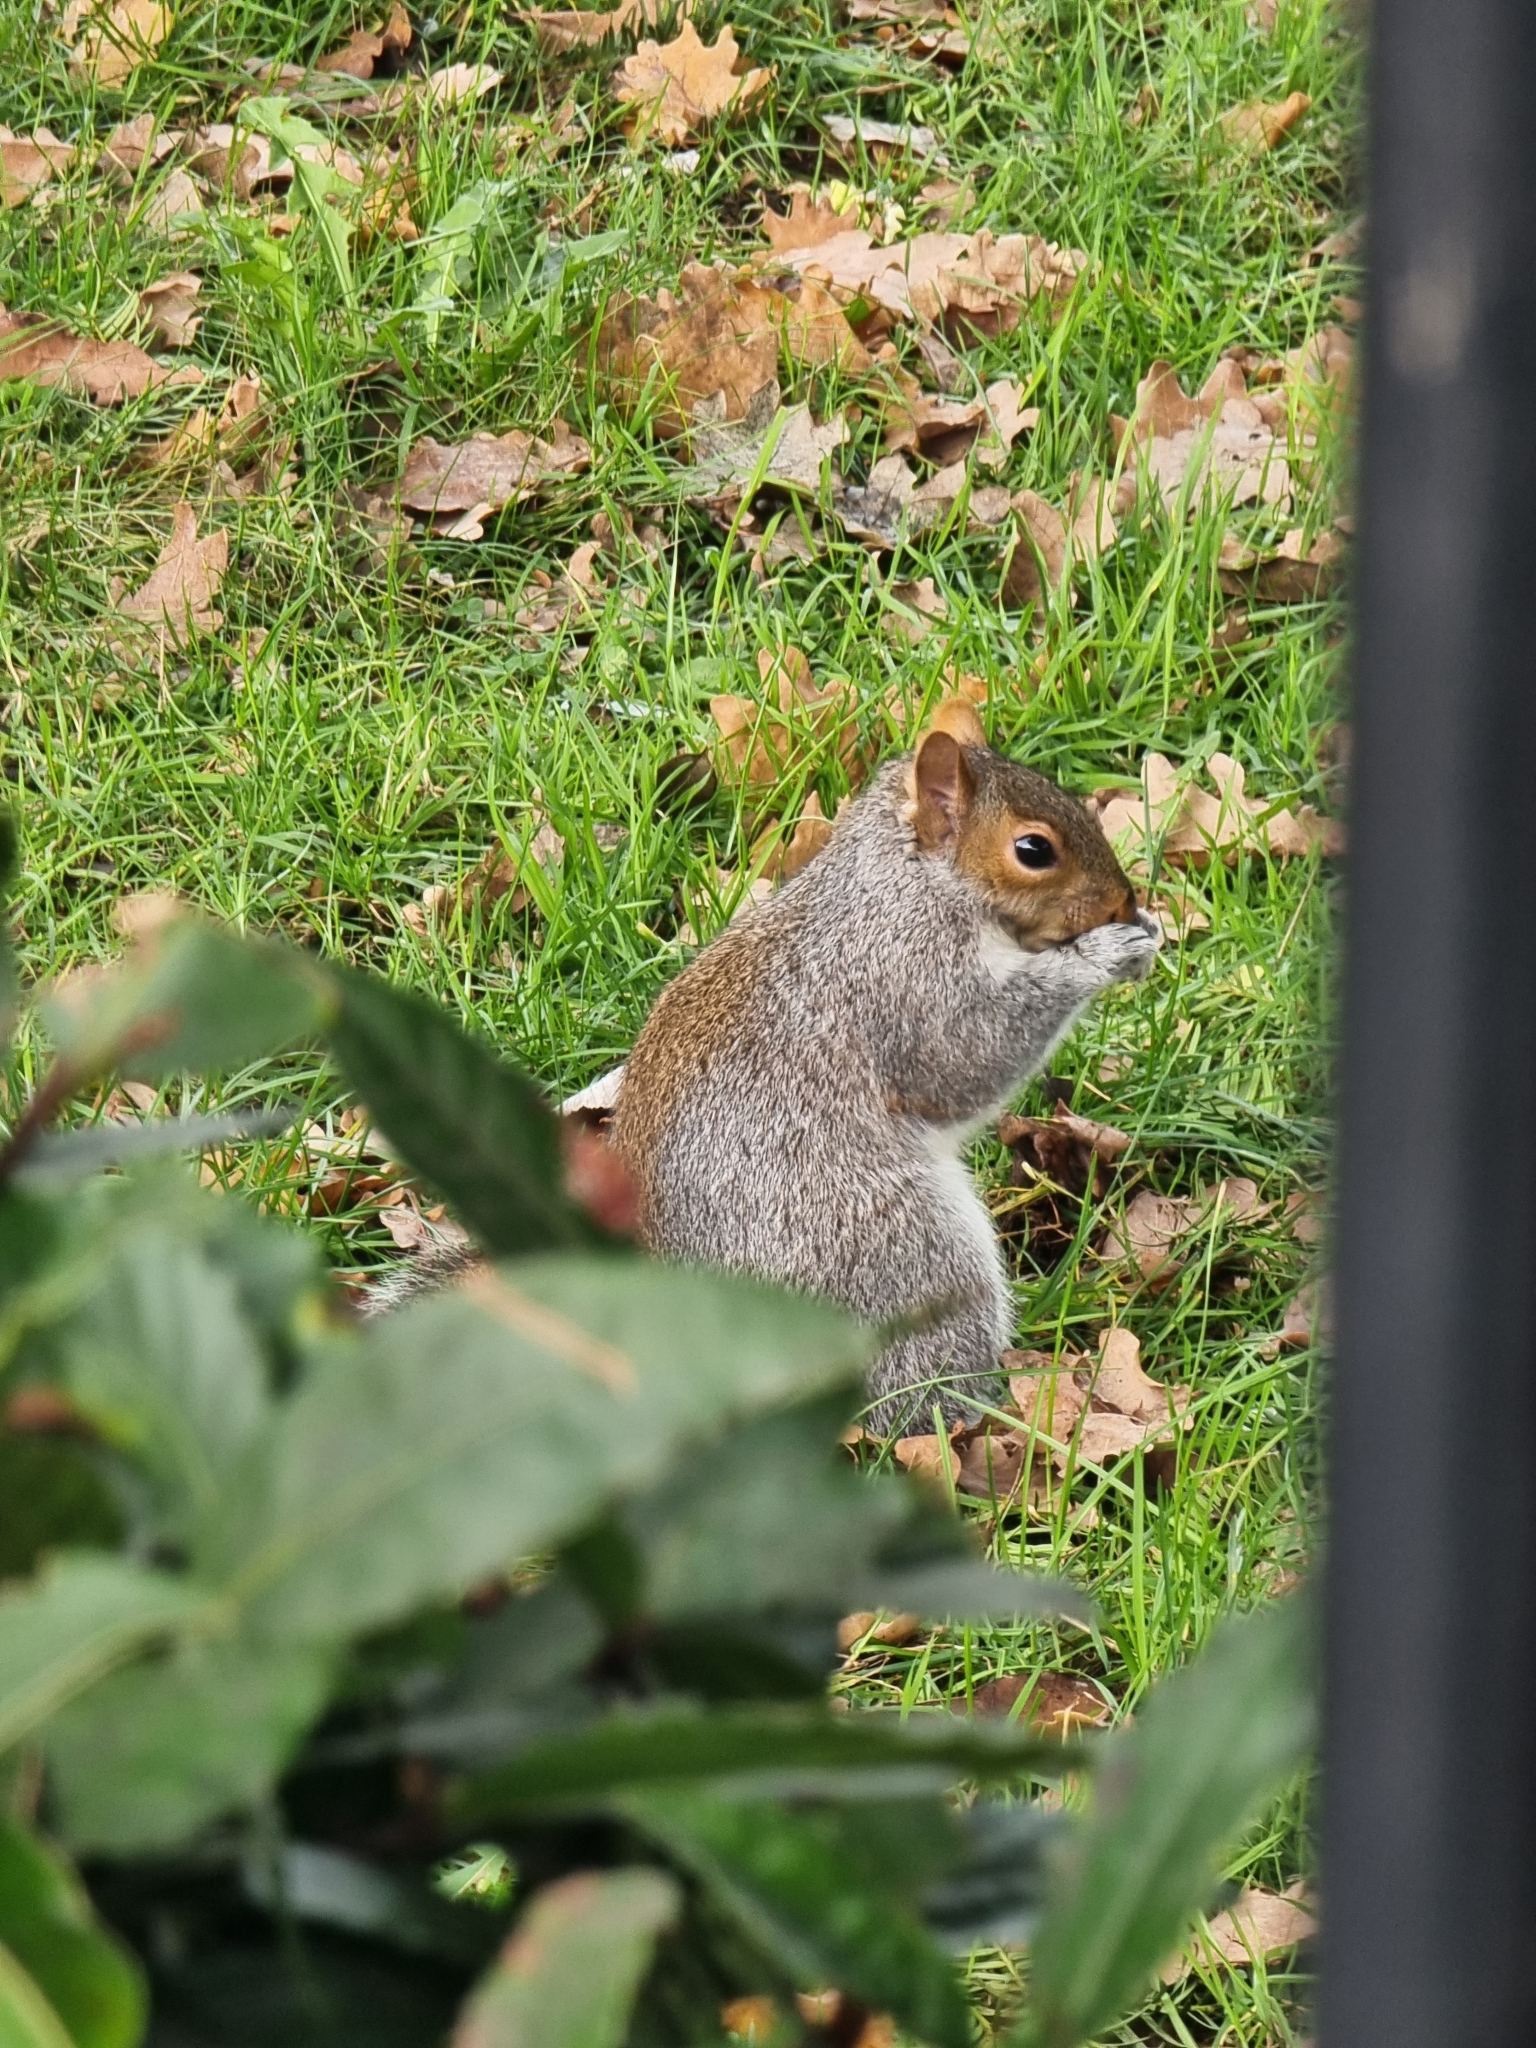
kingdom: Animalia
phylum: Chordata
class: Mammalia
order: Rodentia
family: Sciuridae
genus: Sciurus
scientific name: Sciurus carolinensis
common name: Eastern gray squirrel
